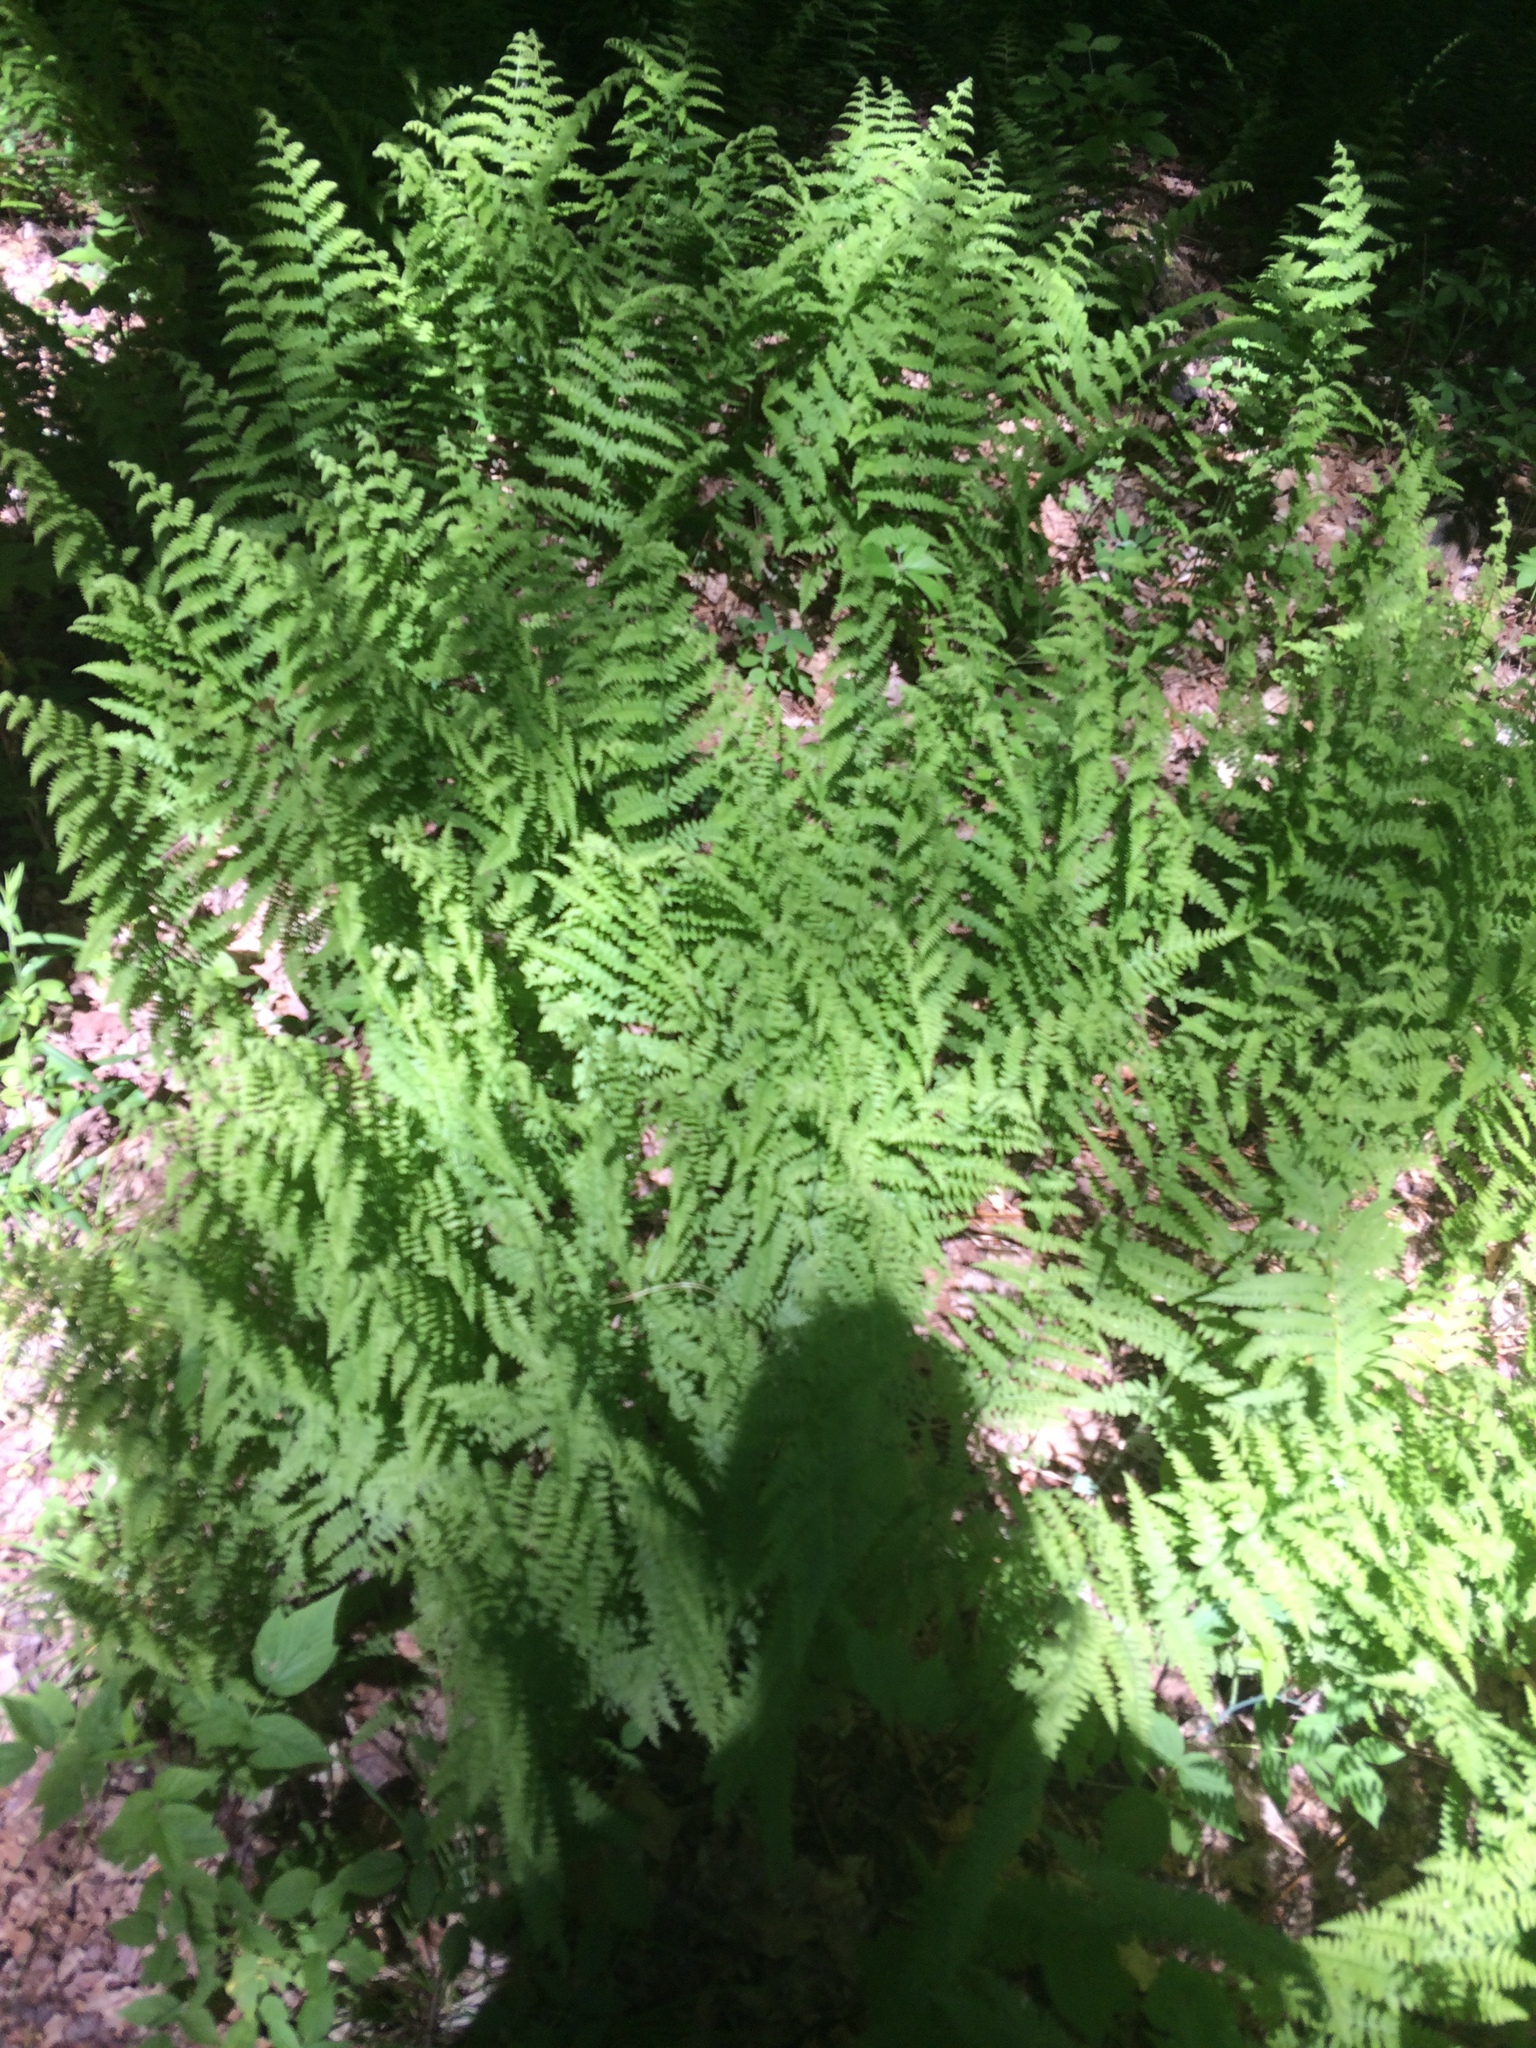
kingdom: Plantae
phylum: Tracheophyta
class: Polypodiopsida
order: Polypodiales
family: Dennstaedtiaceae
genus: Sitobolium
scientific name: Sitobolium punctilobum
